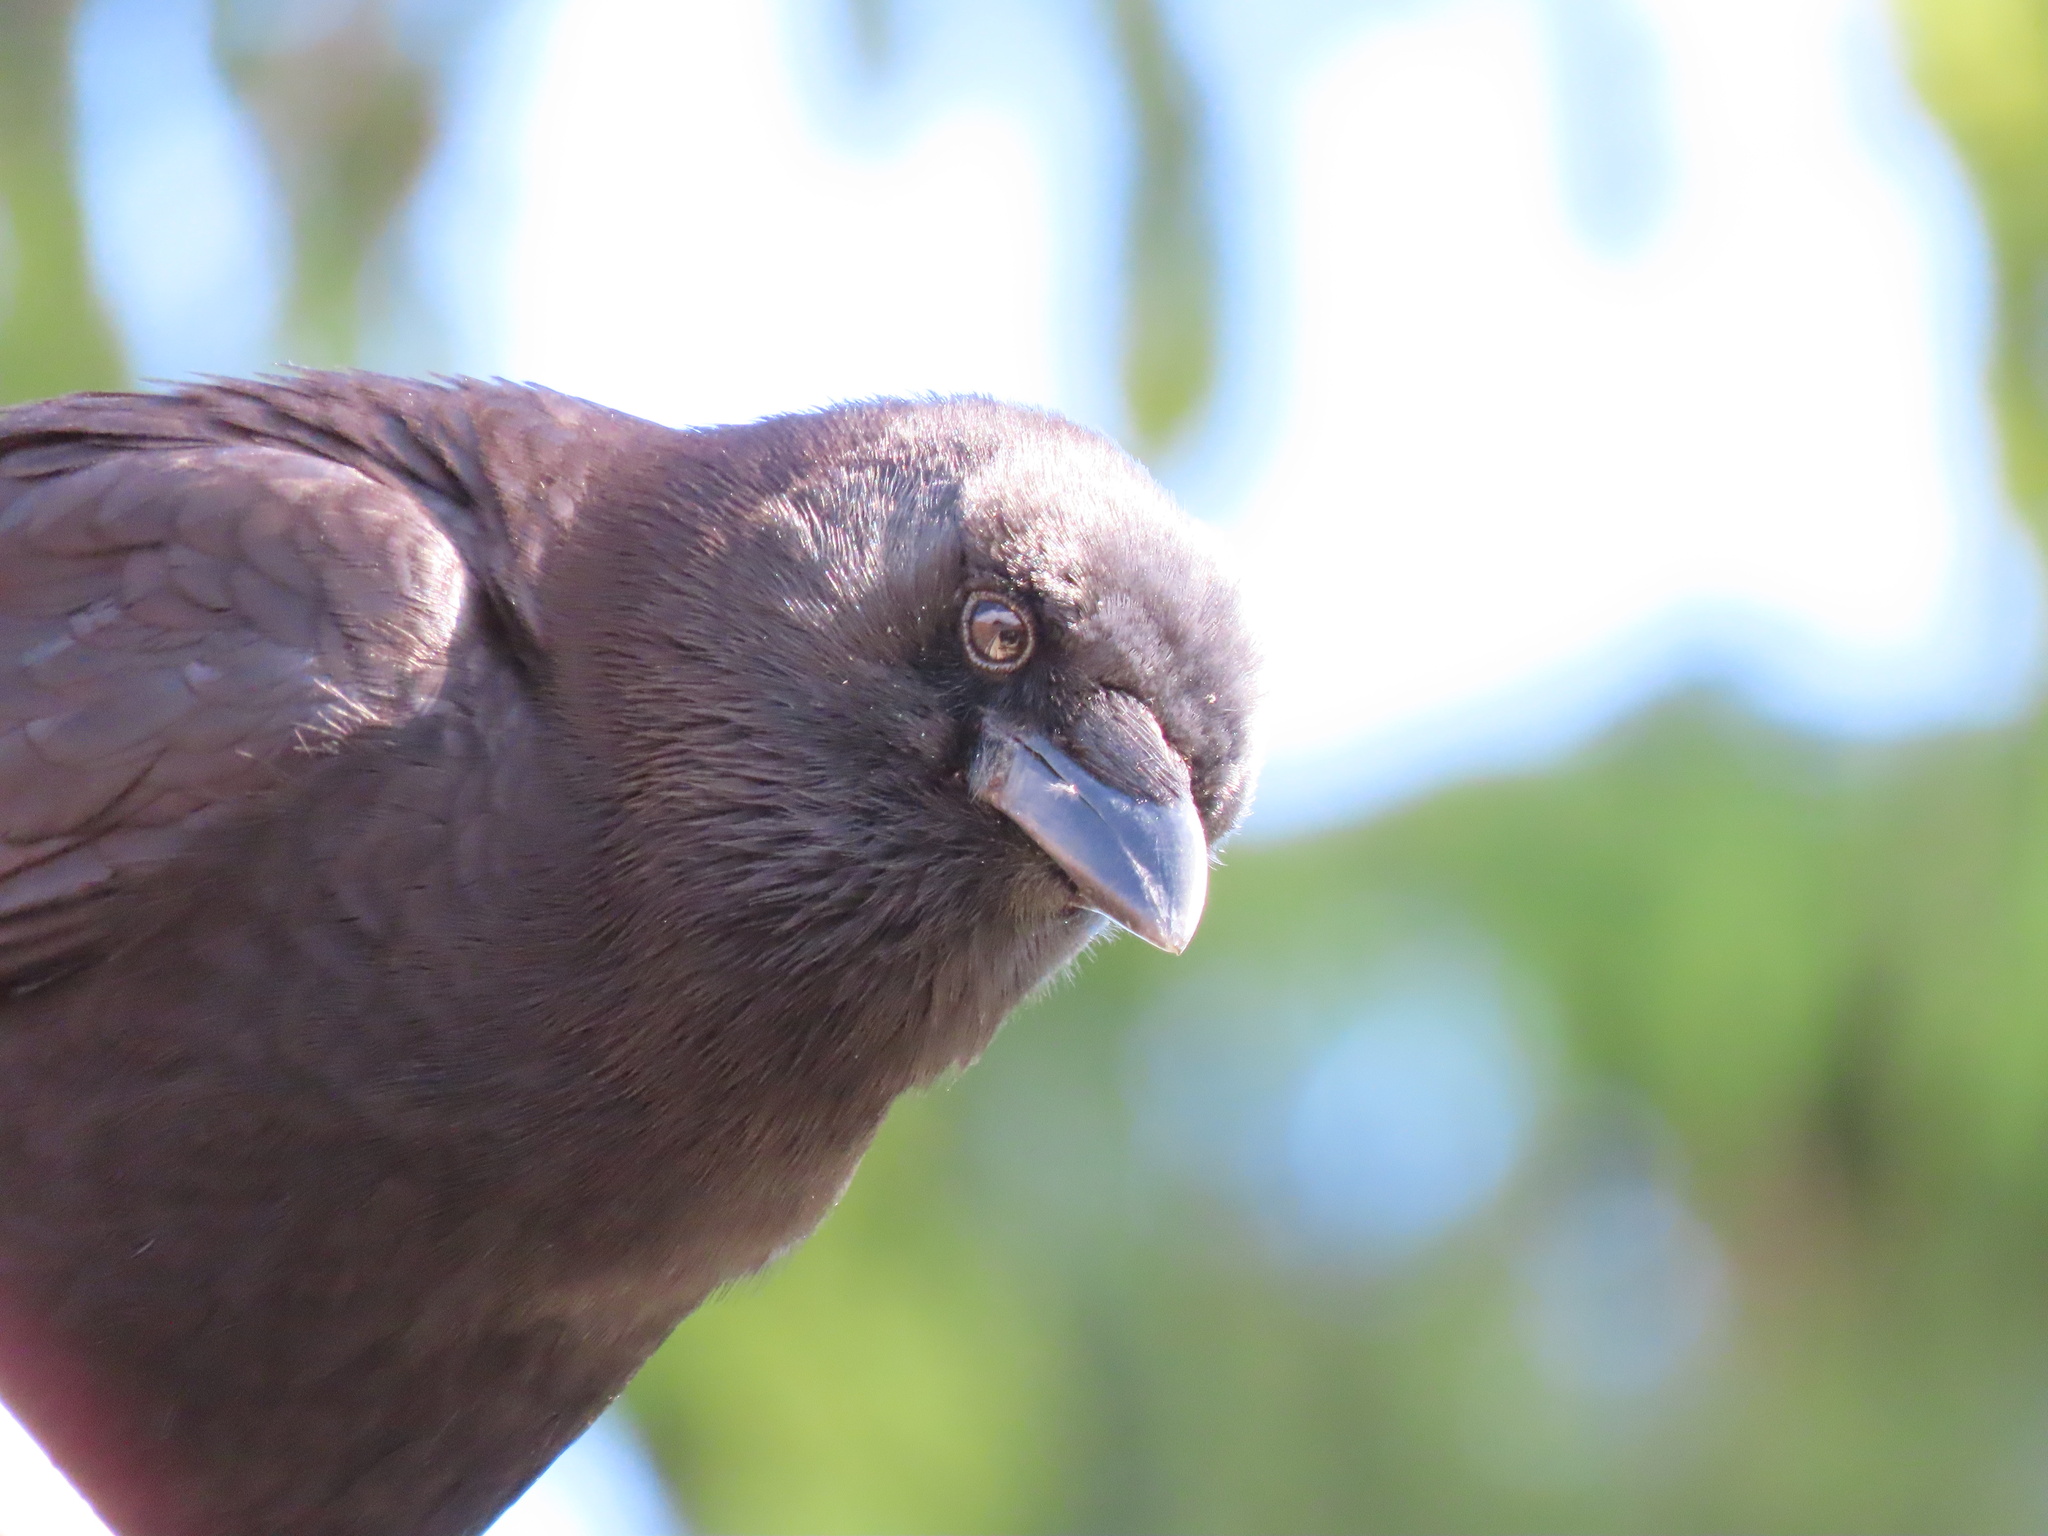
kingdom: Animalia
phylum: Chordata
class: Aves
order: Passeriformes
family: Corvidae
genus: Corvus
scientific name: Corvus brachyrhynchos
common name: American crow
